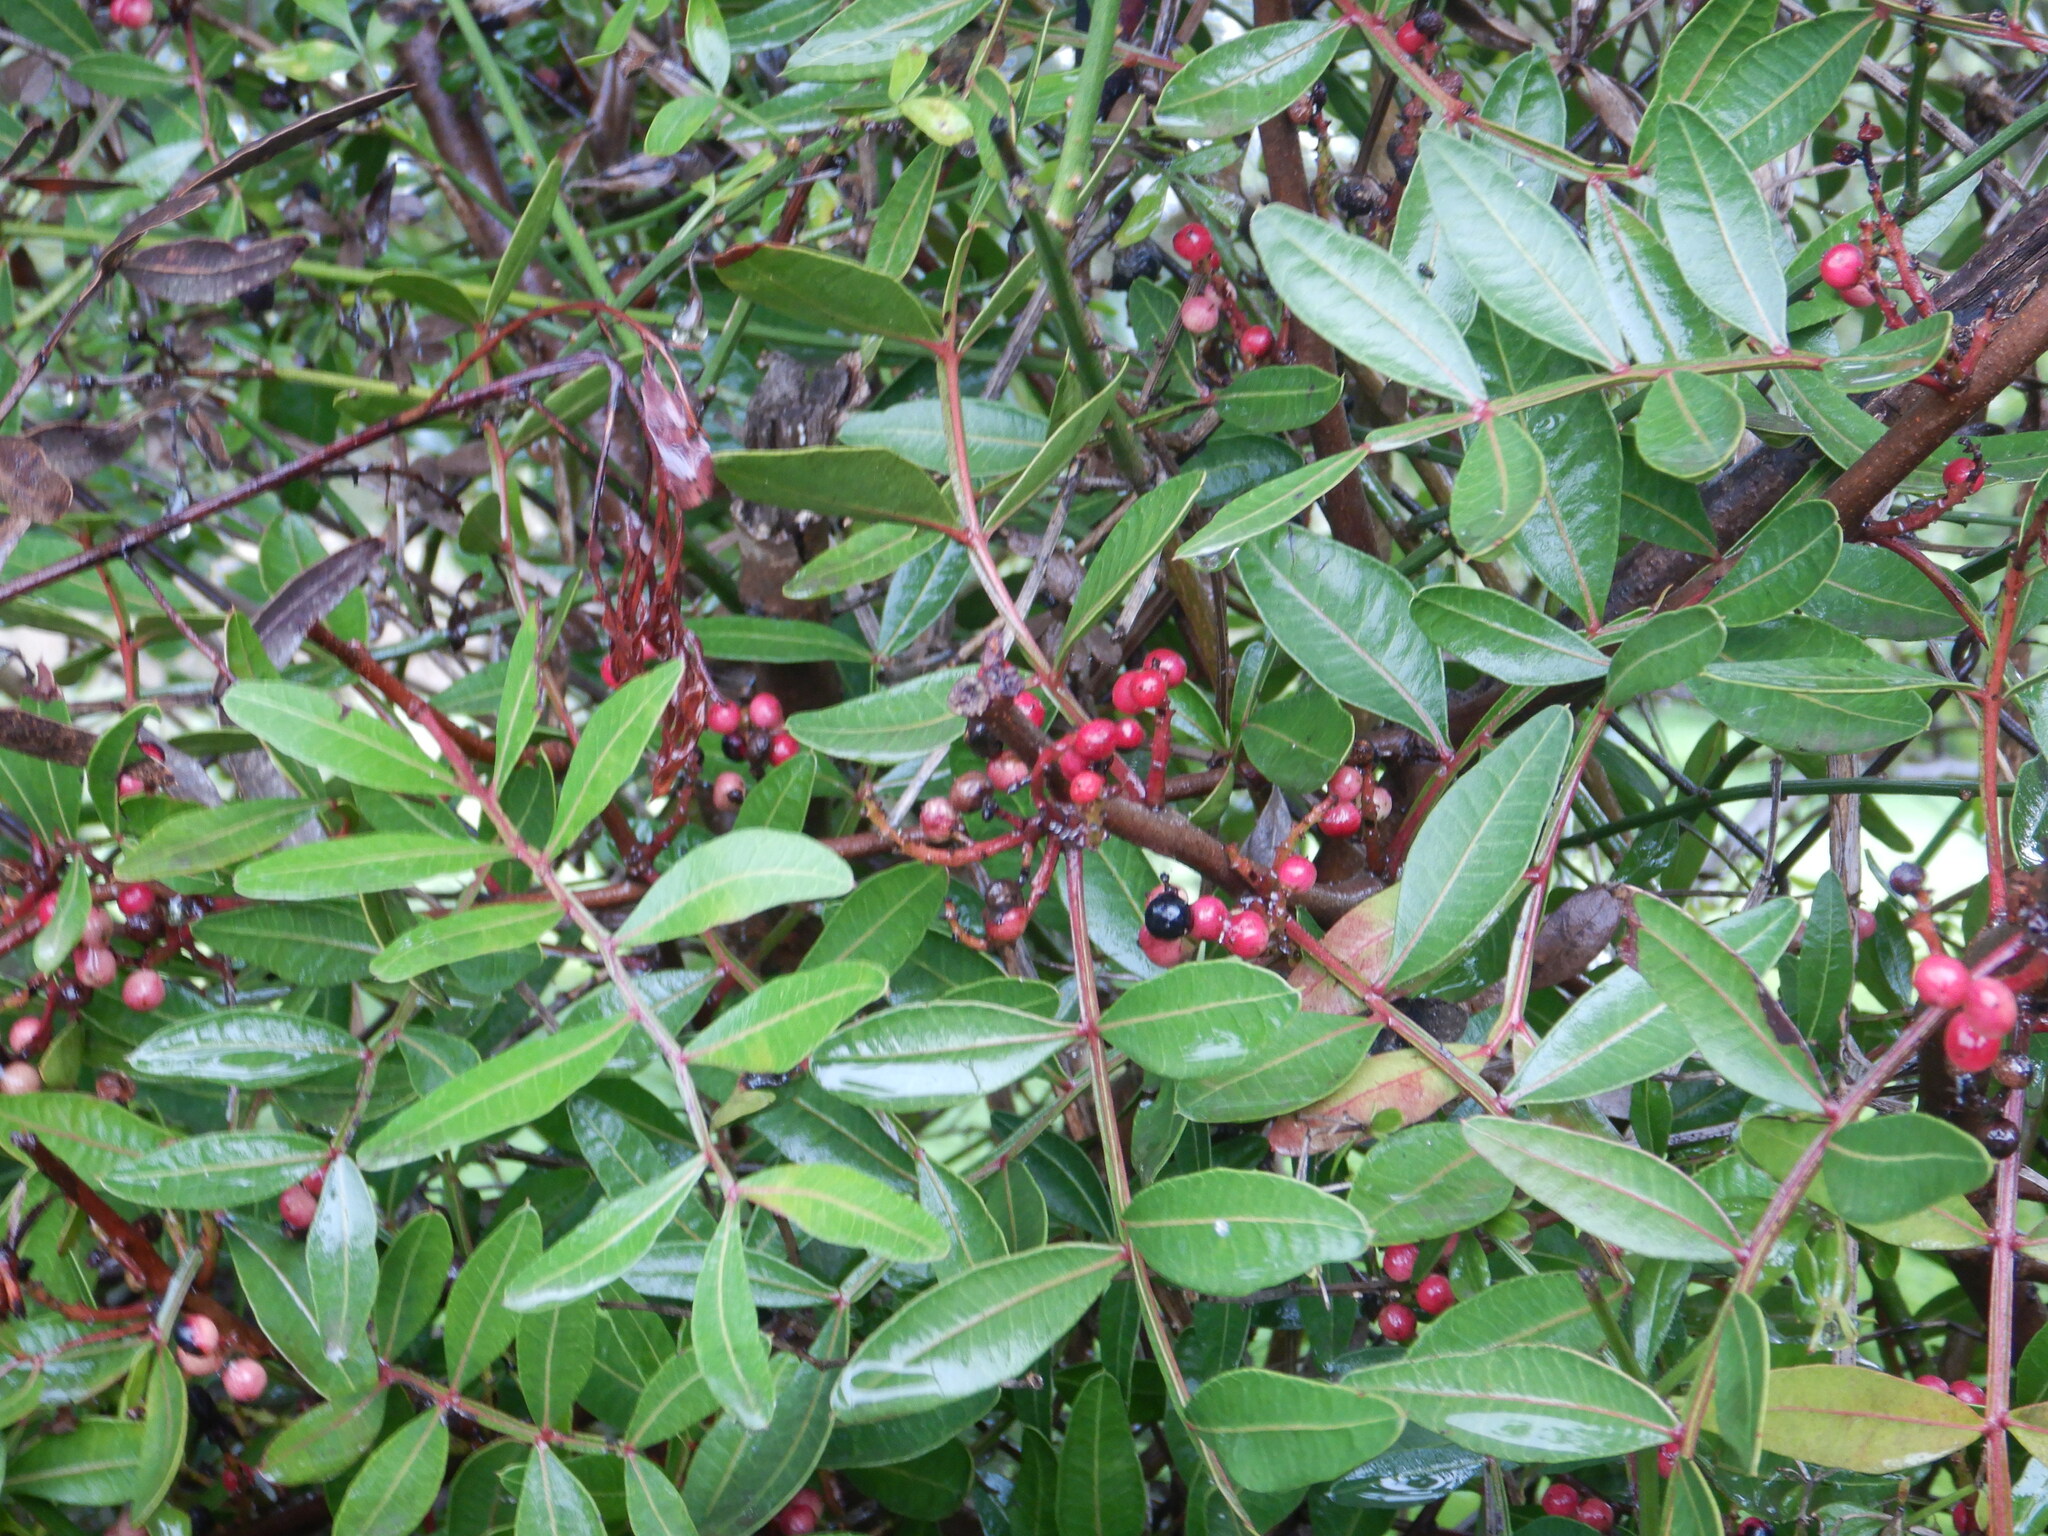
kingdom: Plantae
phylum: Tracheophyta
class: Magnoliopsida
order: Sapindales
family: Anacardiaceae
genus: Pistacia
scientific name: Pistacia lentiscus
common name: Lentisk
